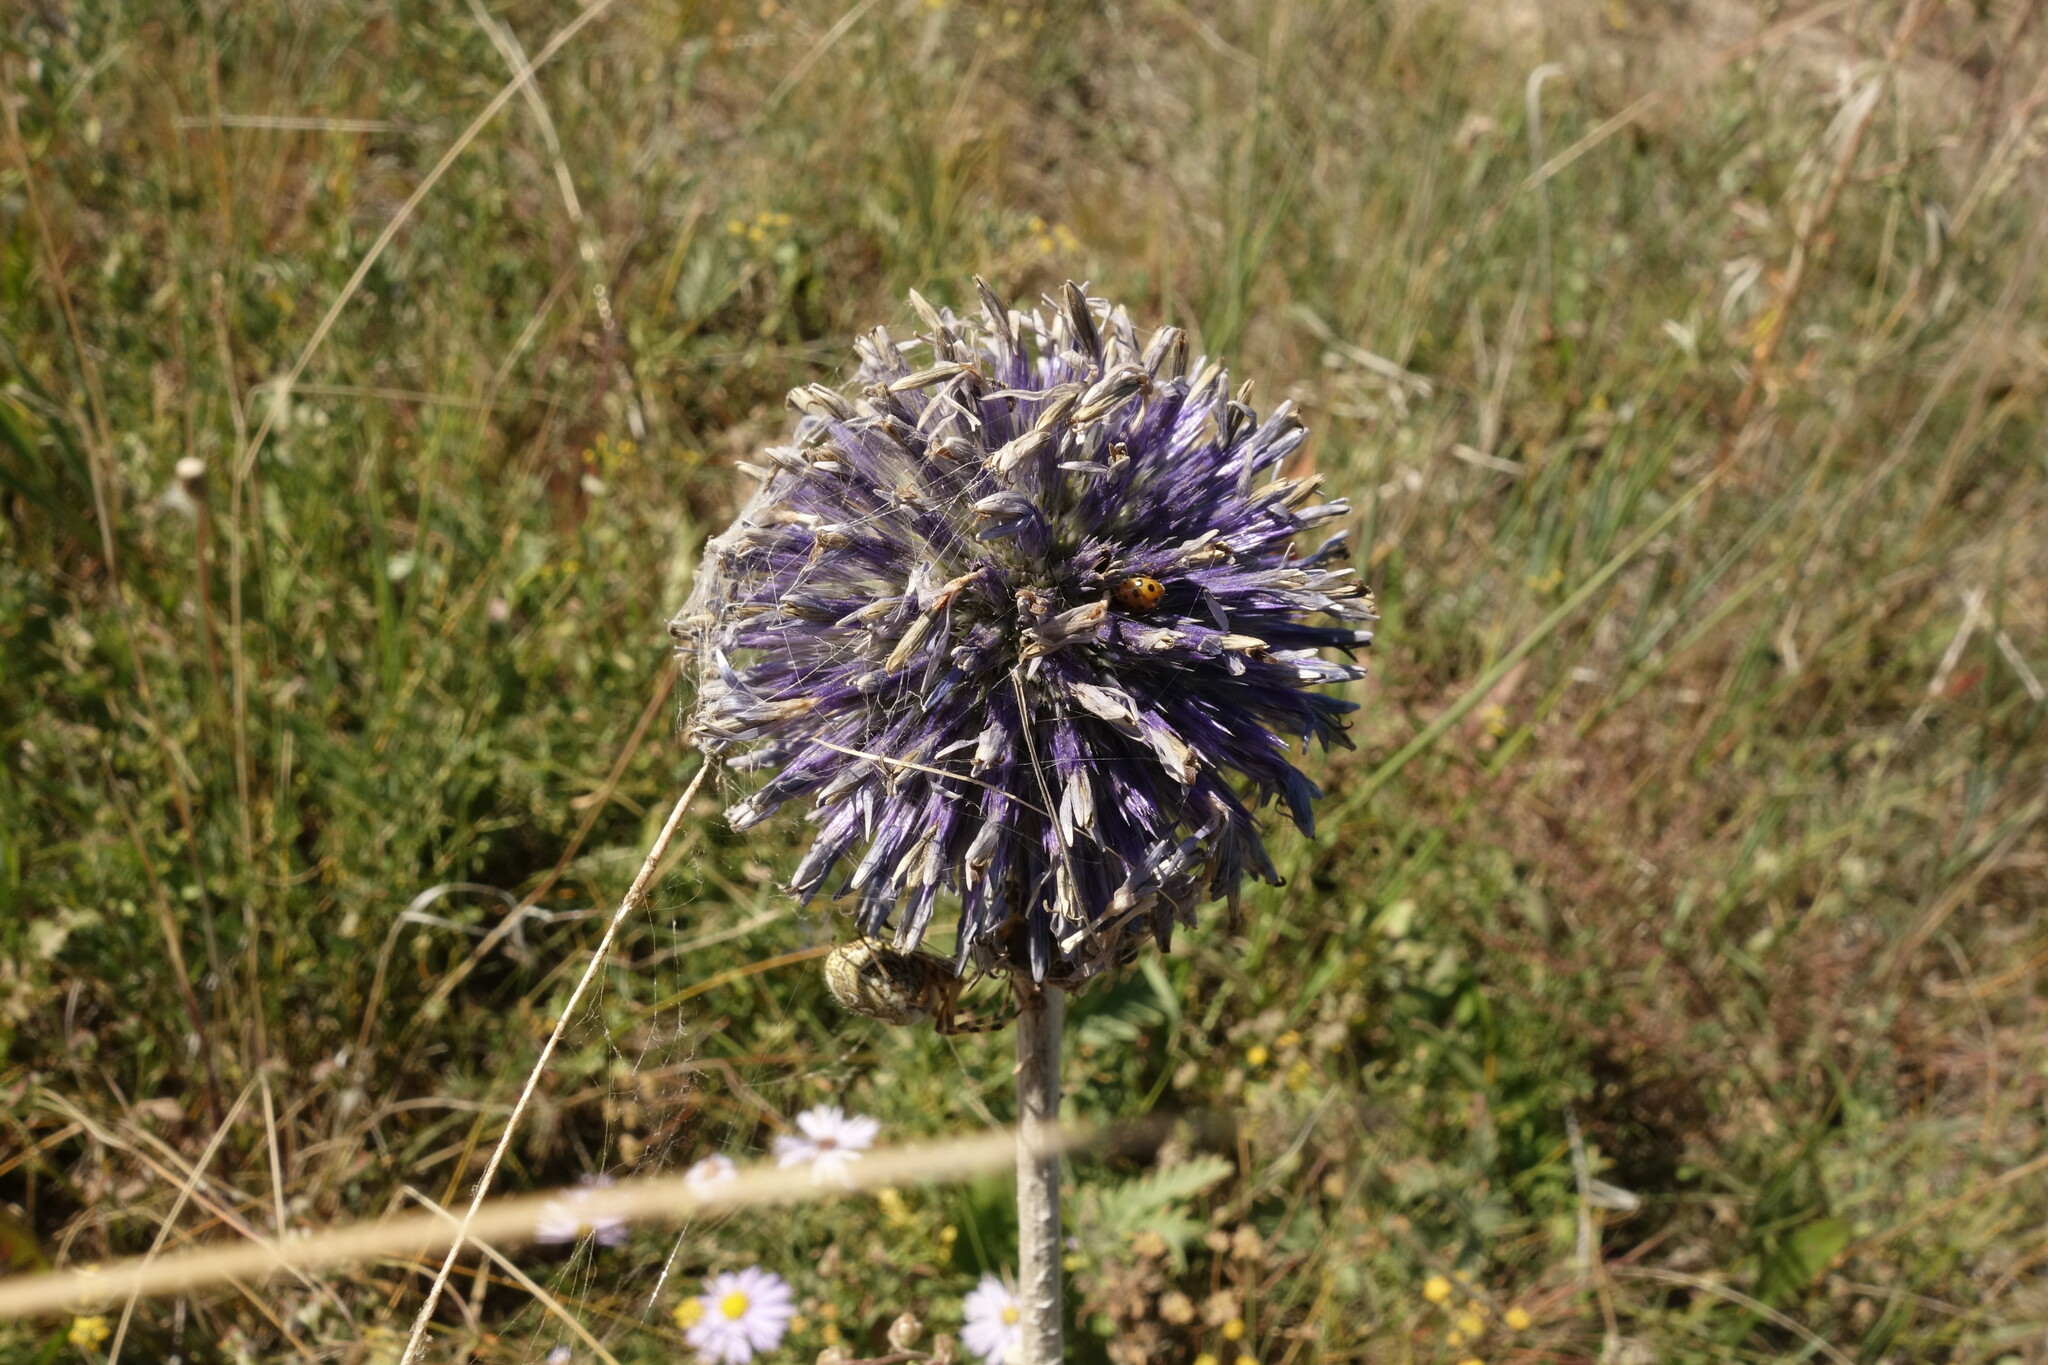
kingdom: Plantae
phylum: Tracheophyta
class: Magnoliopsida
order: Asterales
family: Asteraceae
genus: Echinops
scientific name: Echinops davuricus
